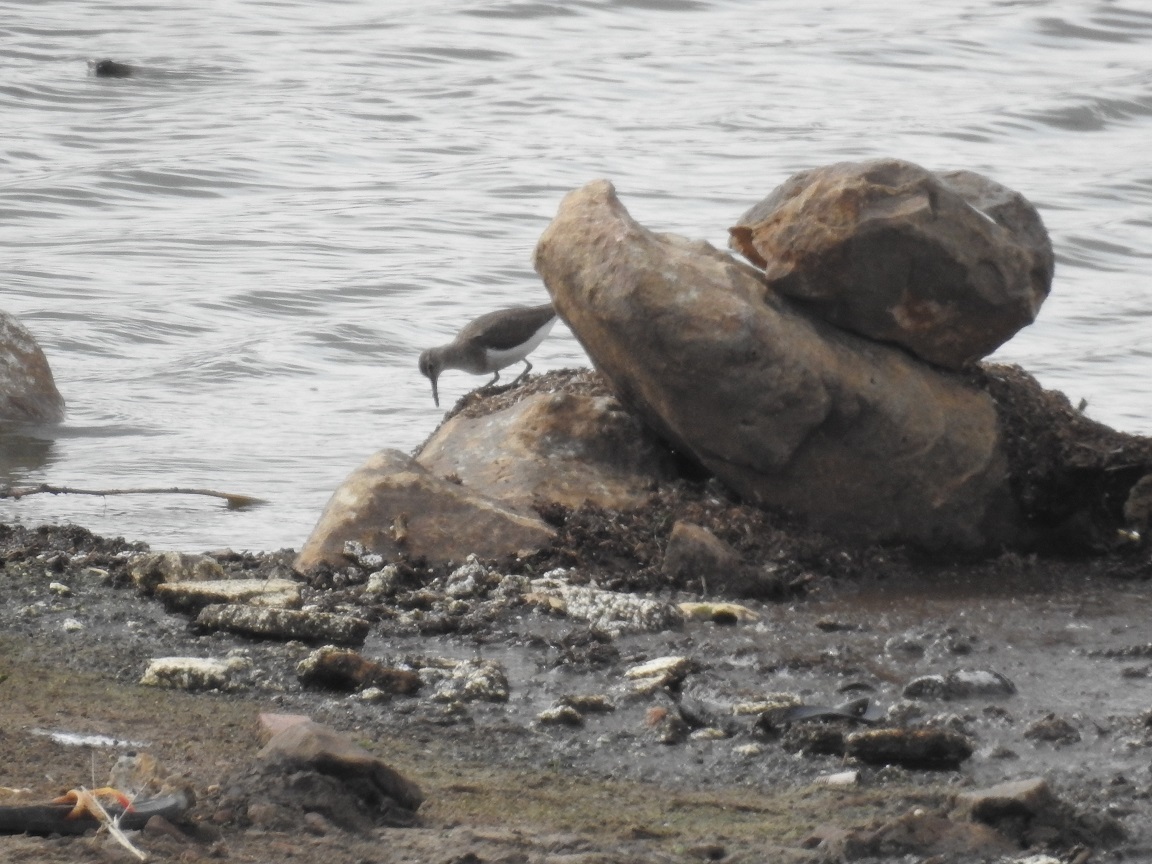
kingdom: Animalia
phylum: Chordata
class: Aves
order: Charadriiformes
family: Scolopacidae
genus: Actitis
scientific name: Actitis hypoleucos
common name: Common sandpiper
